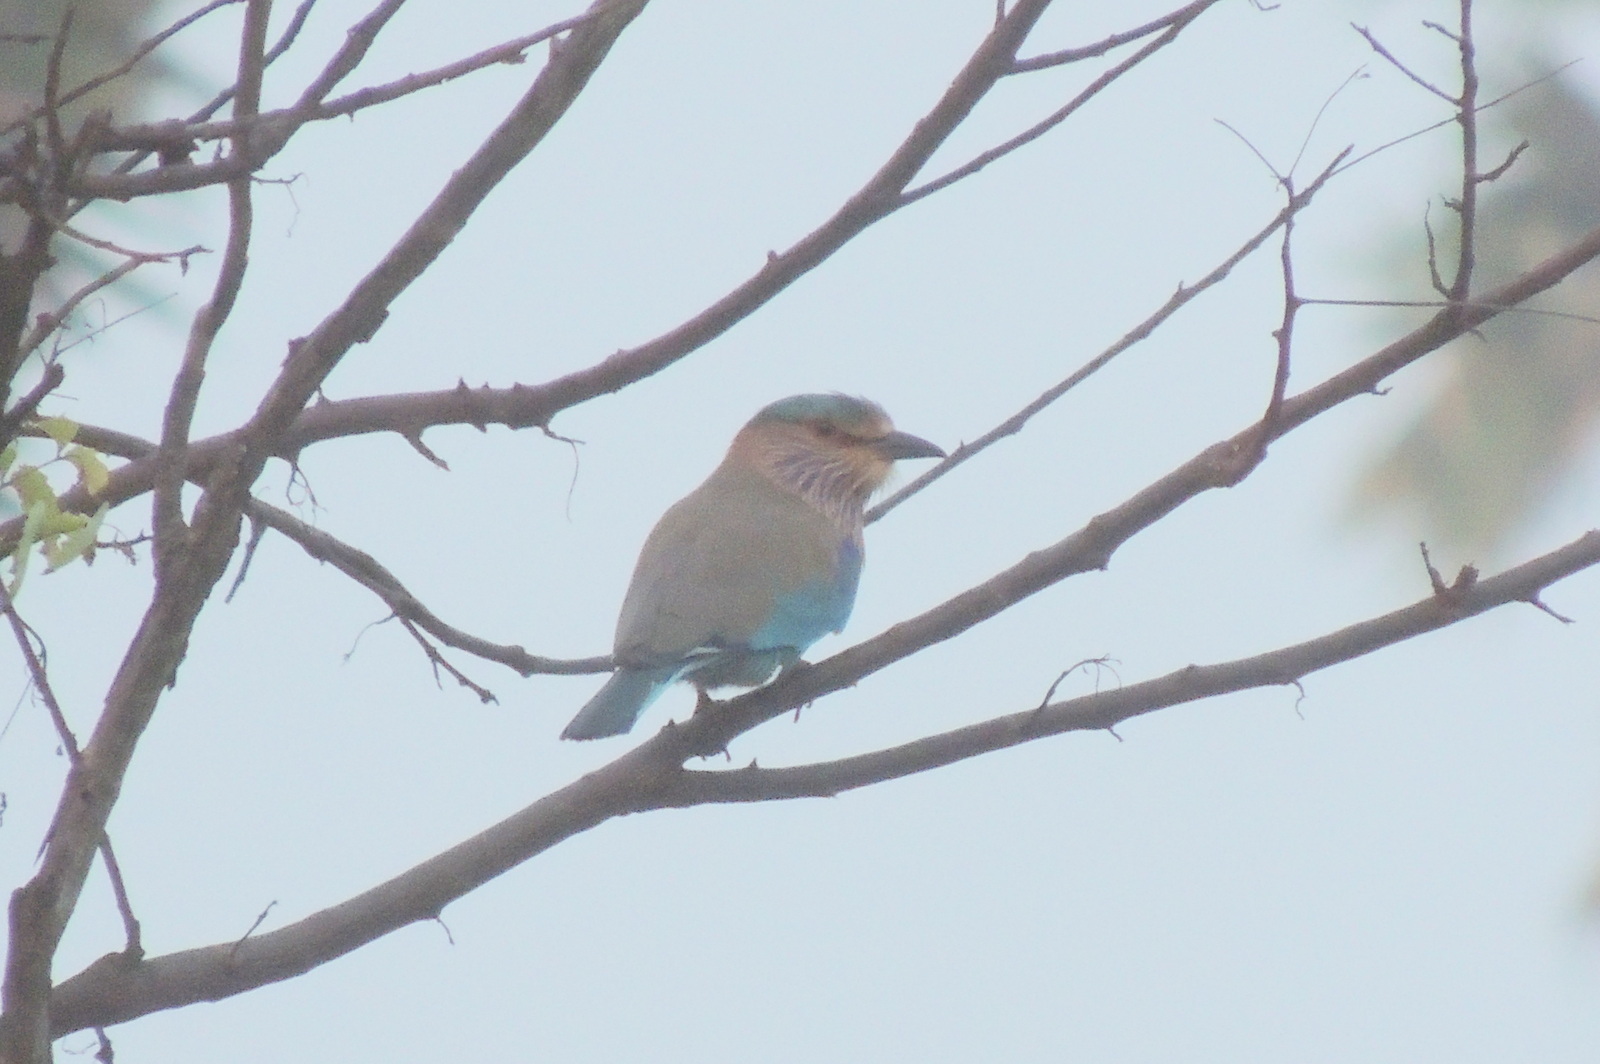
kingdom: Animalia
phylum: Chordata
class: Aves
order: Coraciiformes
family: Coraciidae
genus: Coracias
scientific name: Coracias benghalensis
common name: Indian roller
